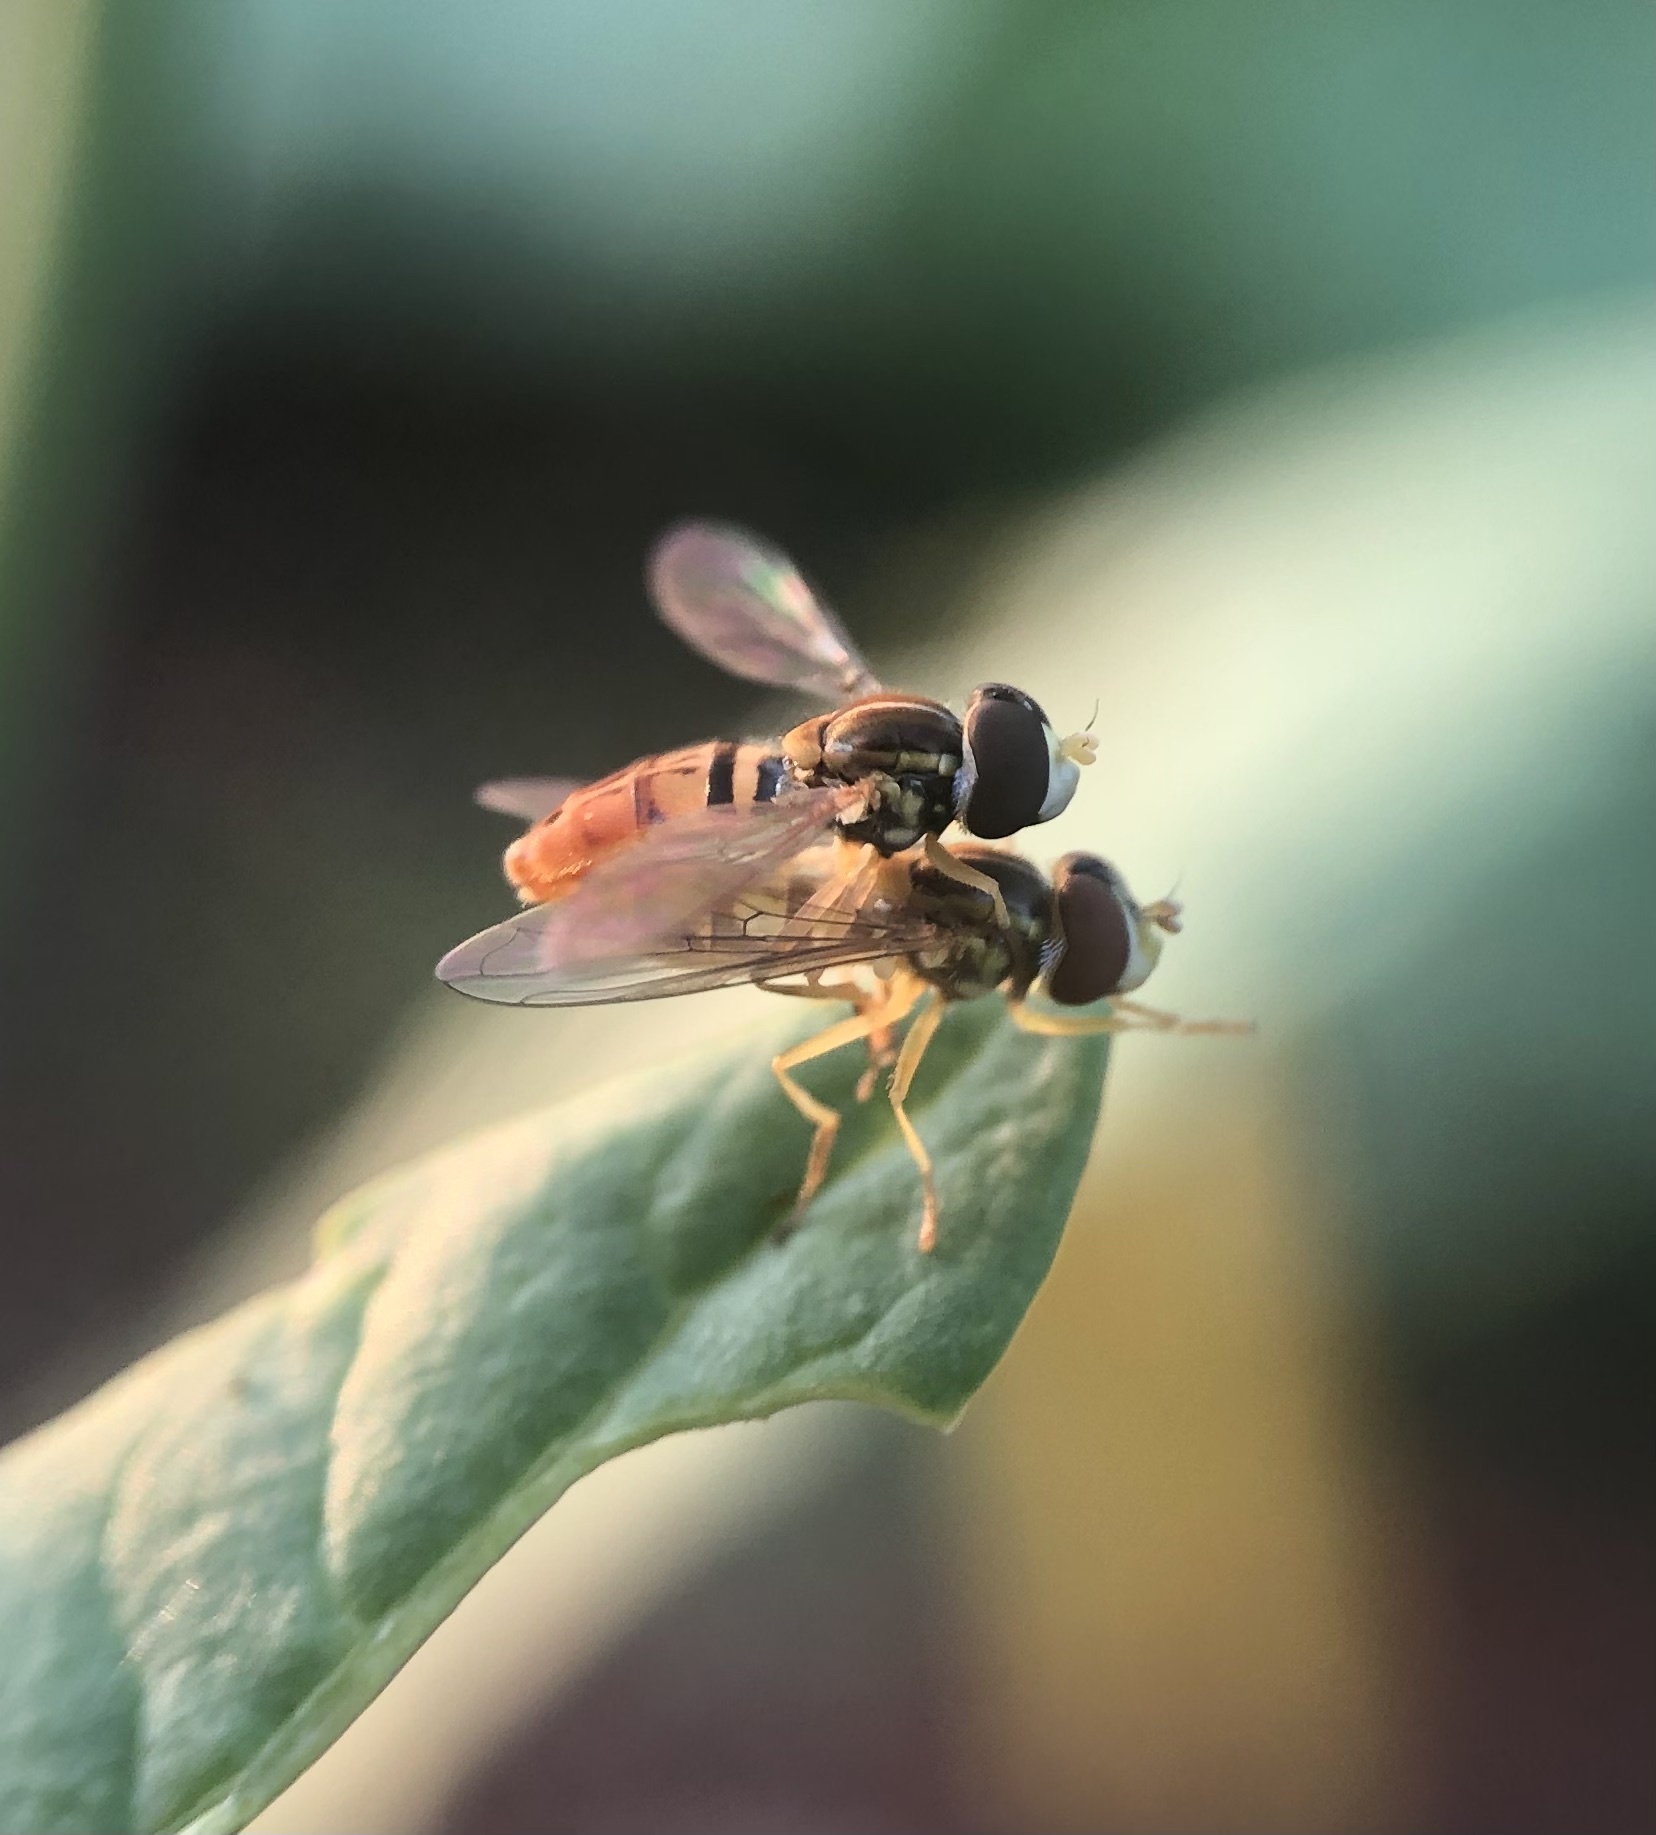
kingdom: Animalia
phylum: Arthropoda
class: Insecta
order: Diptera
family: Syrphidae
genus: Toxomerus
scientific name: Toxomerus marginatus
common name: Syrphid fly
